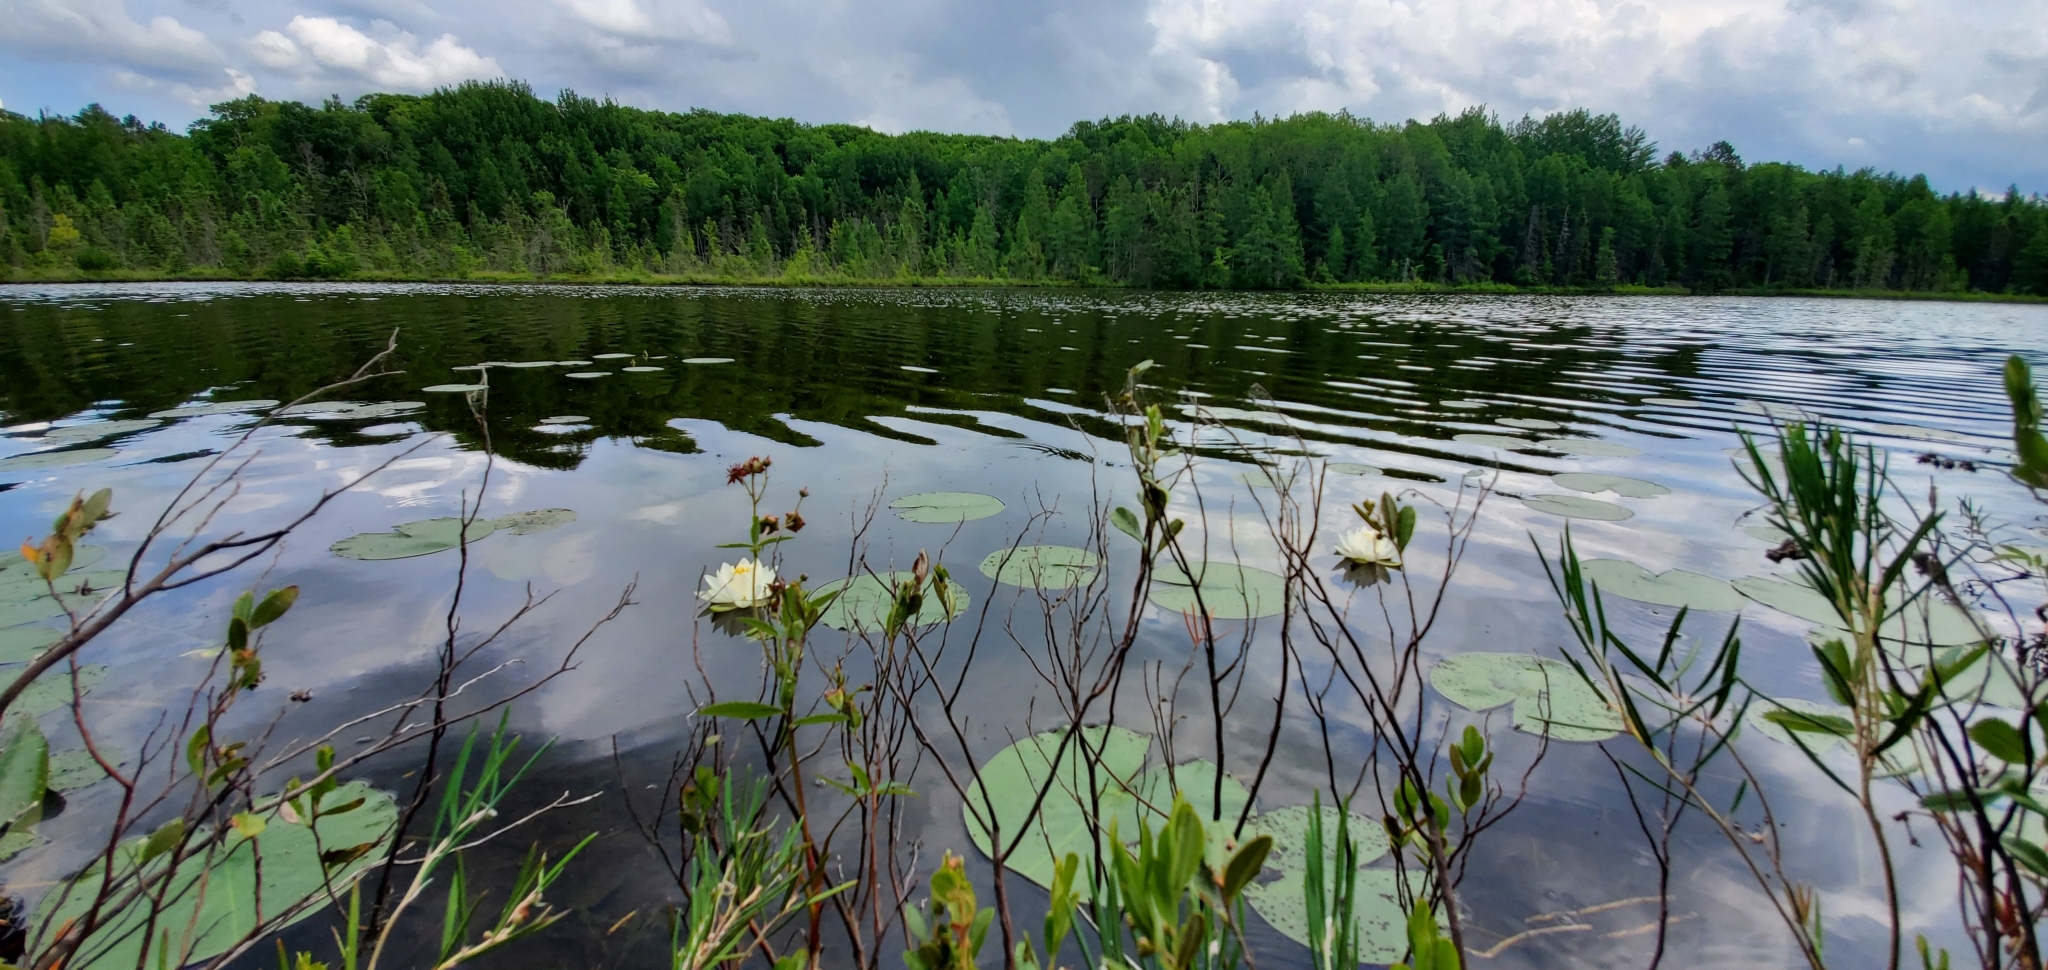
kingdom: Plantae
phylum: Tracheophyta
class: Magnoliopsida
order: Nymphaeales
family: Nymphaeaceae
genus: Nymphaea
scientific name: Nymphaea odorata
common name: Fragrant water-lily
